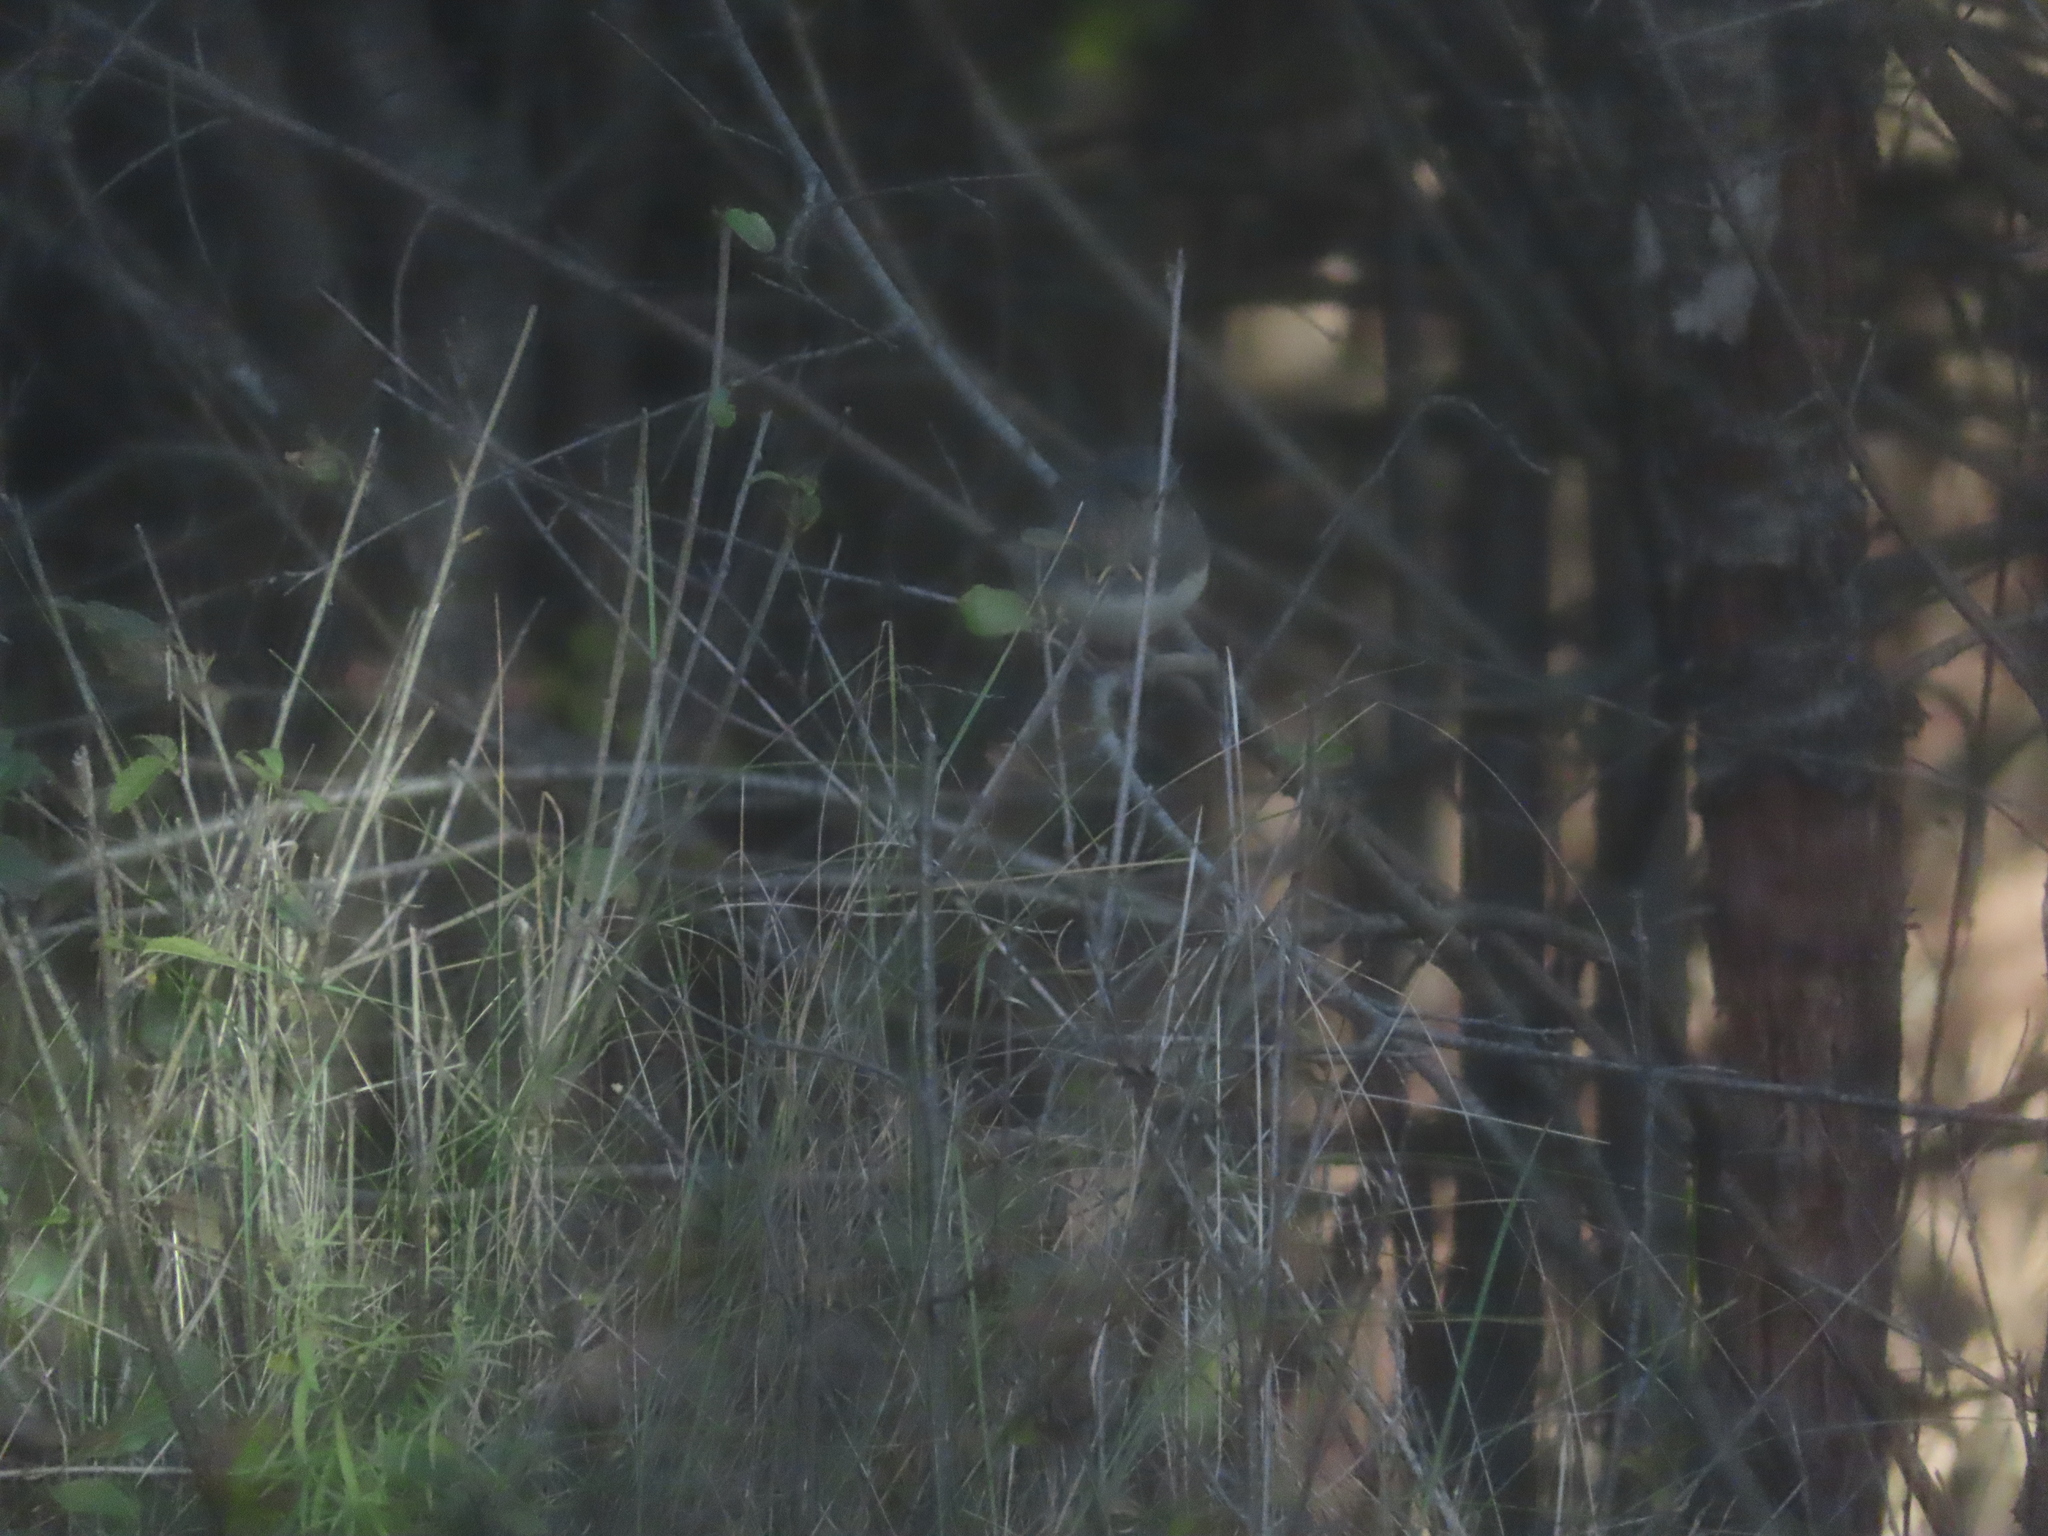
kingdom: Animalia
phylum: Chordata
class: Aves
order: Passeriformes
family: Passerellidae
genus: Junco
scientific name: Junco hyemalis
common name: Dark-eyed junco
